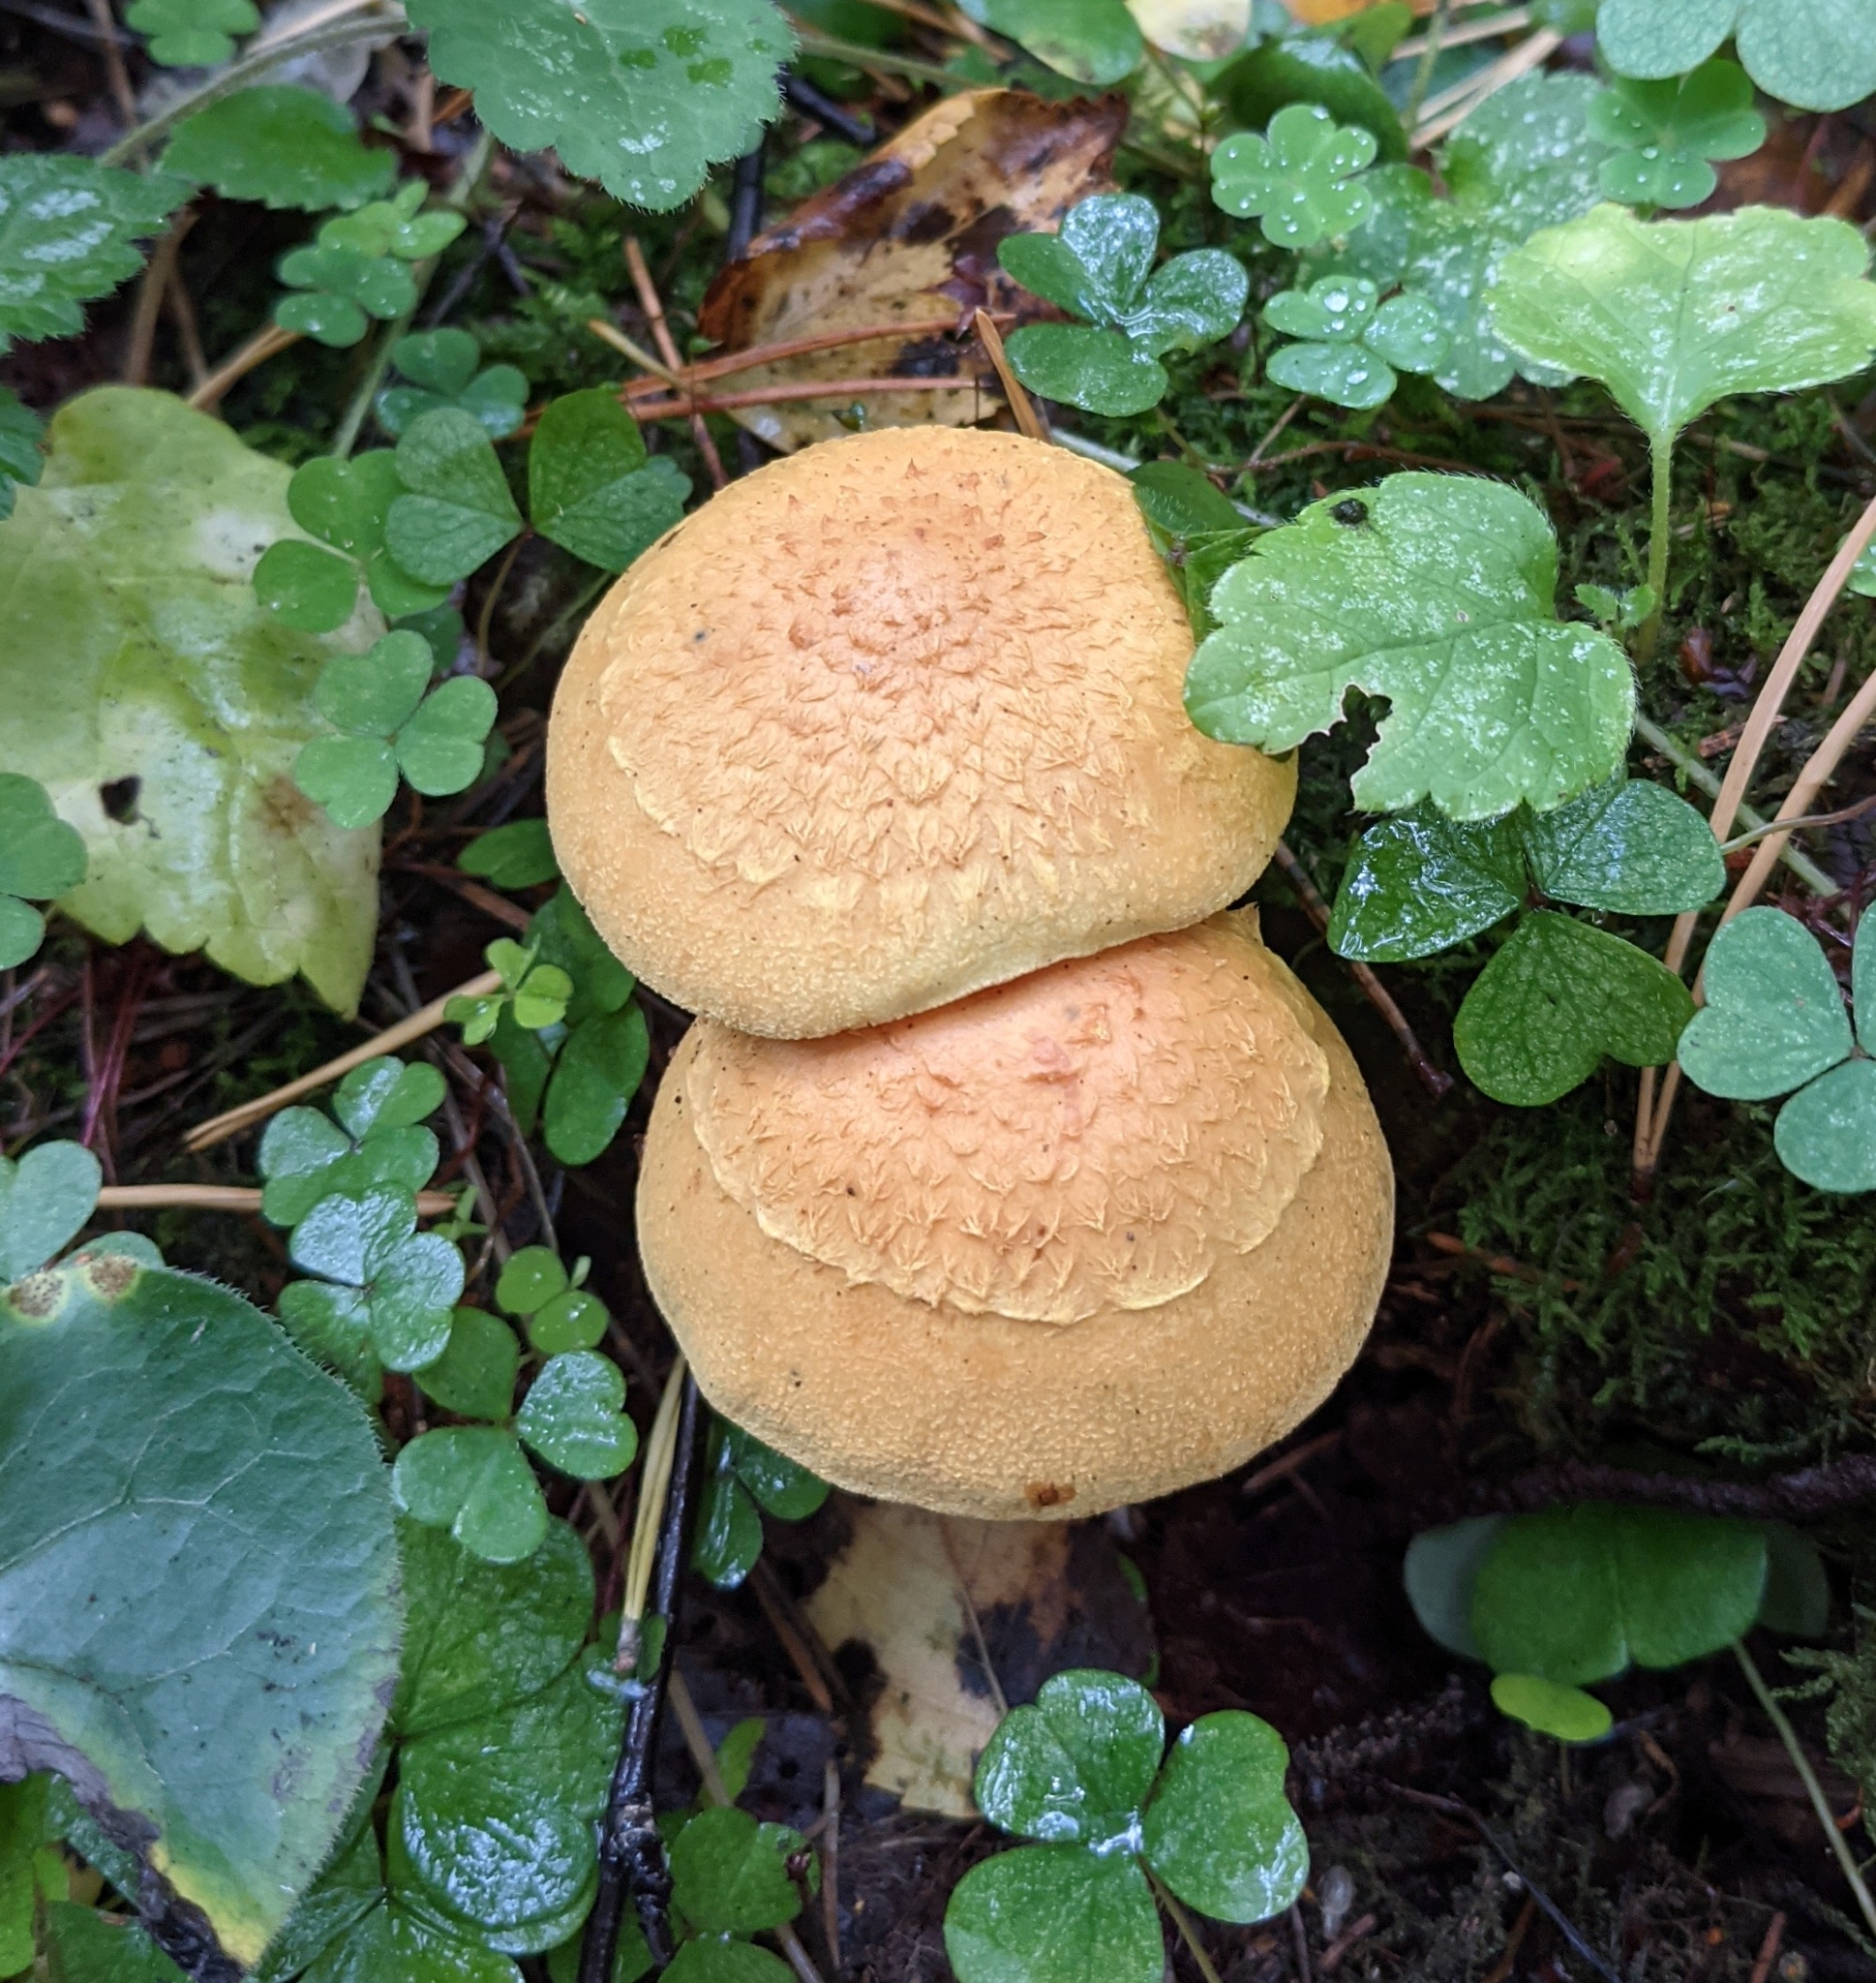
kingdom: Fungi
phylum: Basidiomycota
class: Agaricomycetes
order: Agaricales
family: Strophariaceae
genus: Pholiota
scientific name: Pholiota flammans
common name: Flaming scalycap
